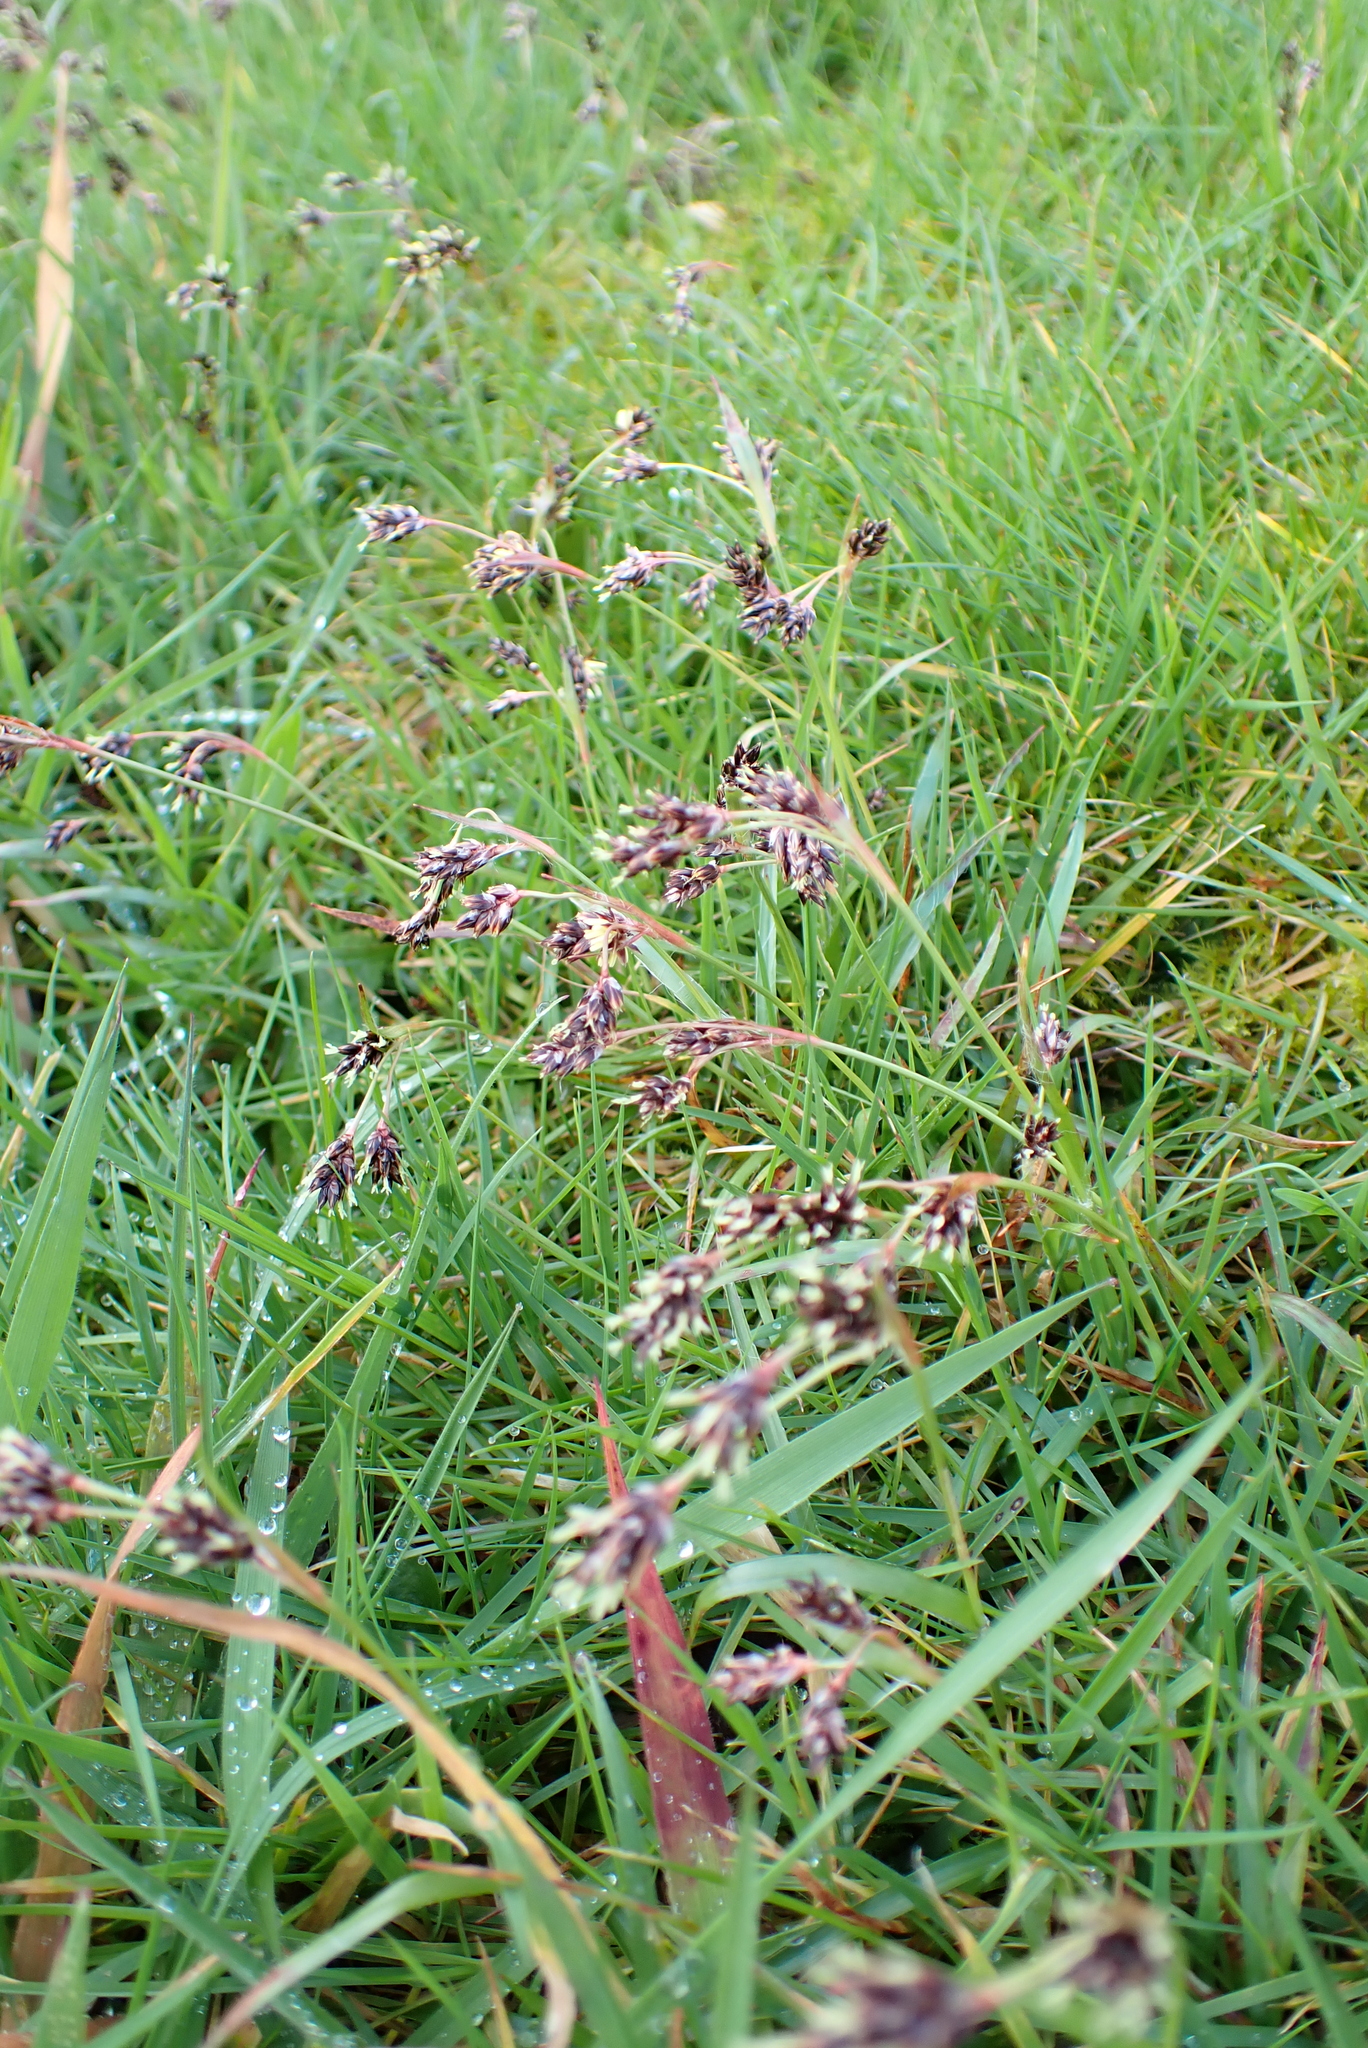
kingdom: Plantae
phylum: Tracheophyta
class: Liliopsida
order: Poales
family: Juncaceae
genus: Luzula
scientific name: Luzula campestris
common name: Field wood-rush
